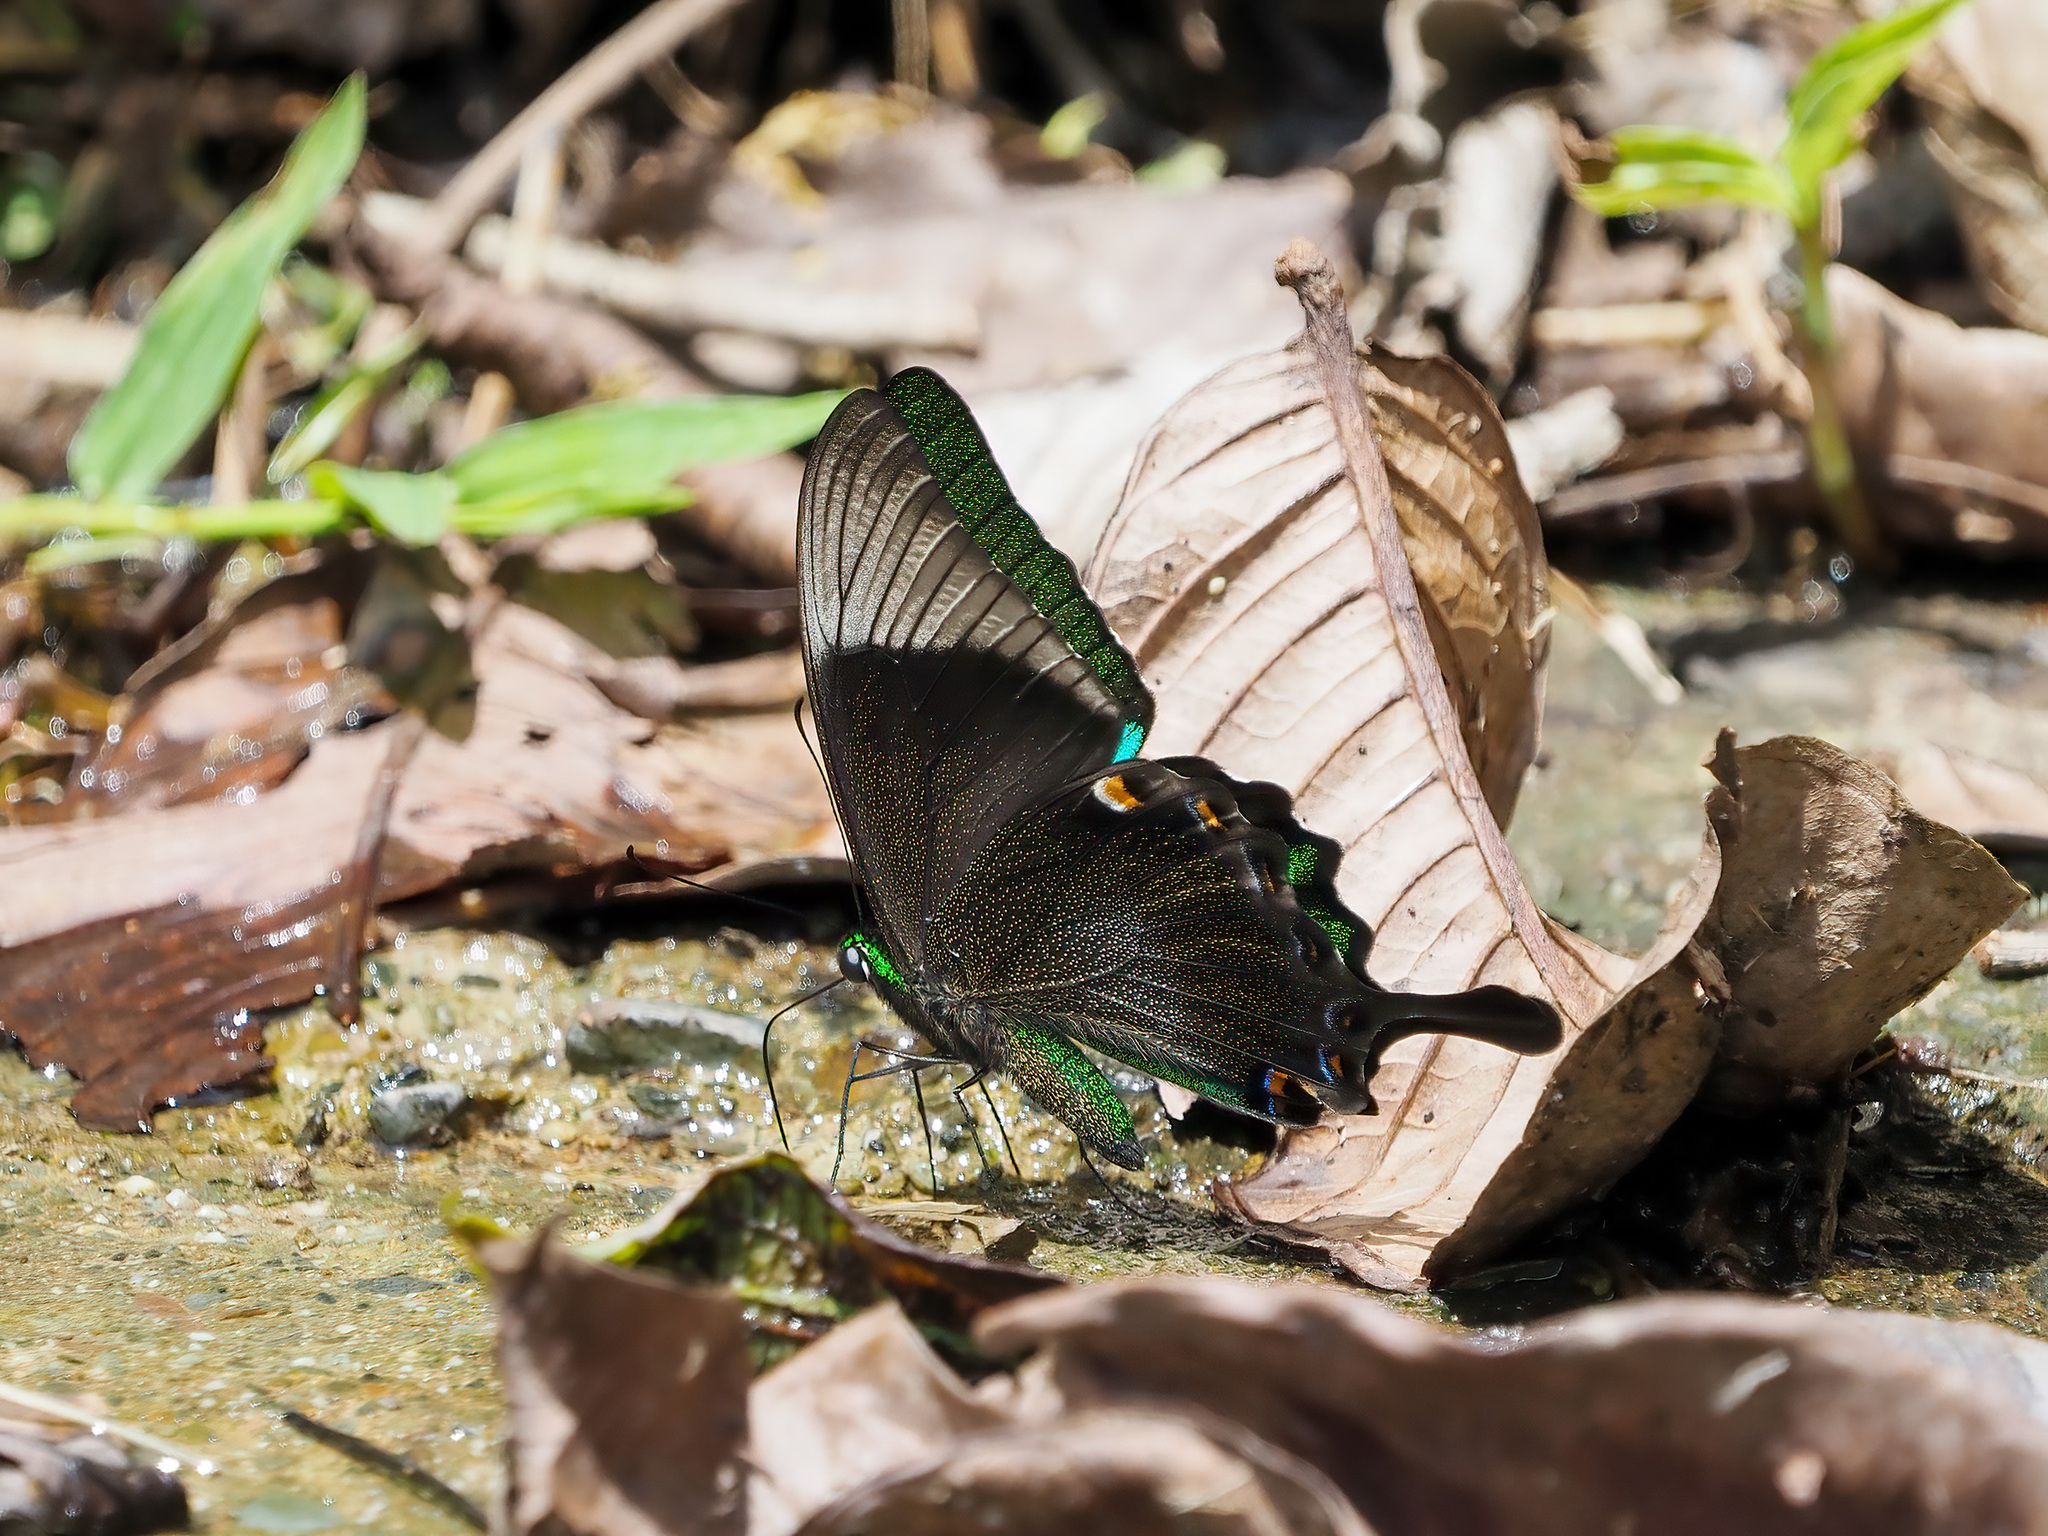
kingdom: Animalia
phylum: Arthropoda
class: Insecta
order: Lepidoptera
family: Papilionidae
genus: Papilio
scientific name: Papilio palinurus
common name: Banded peacock
